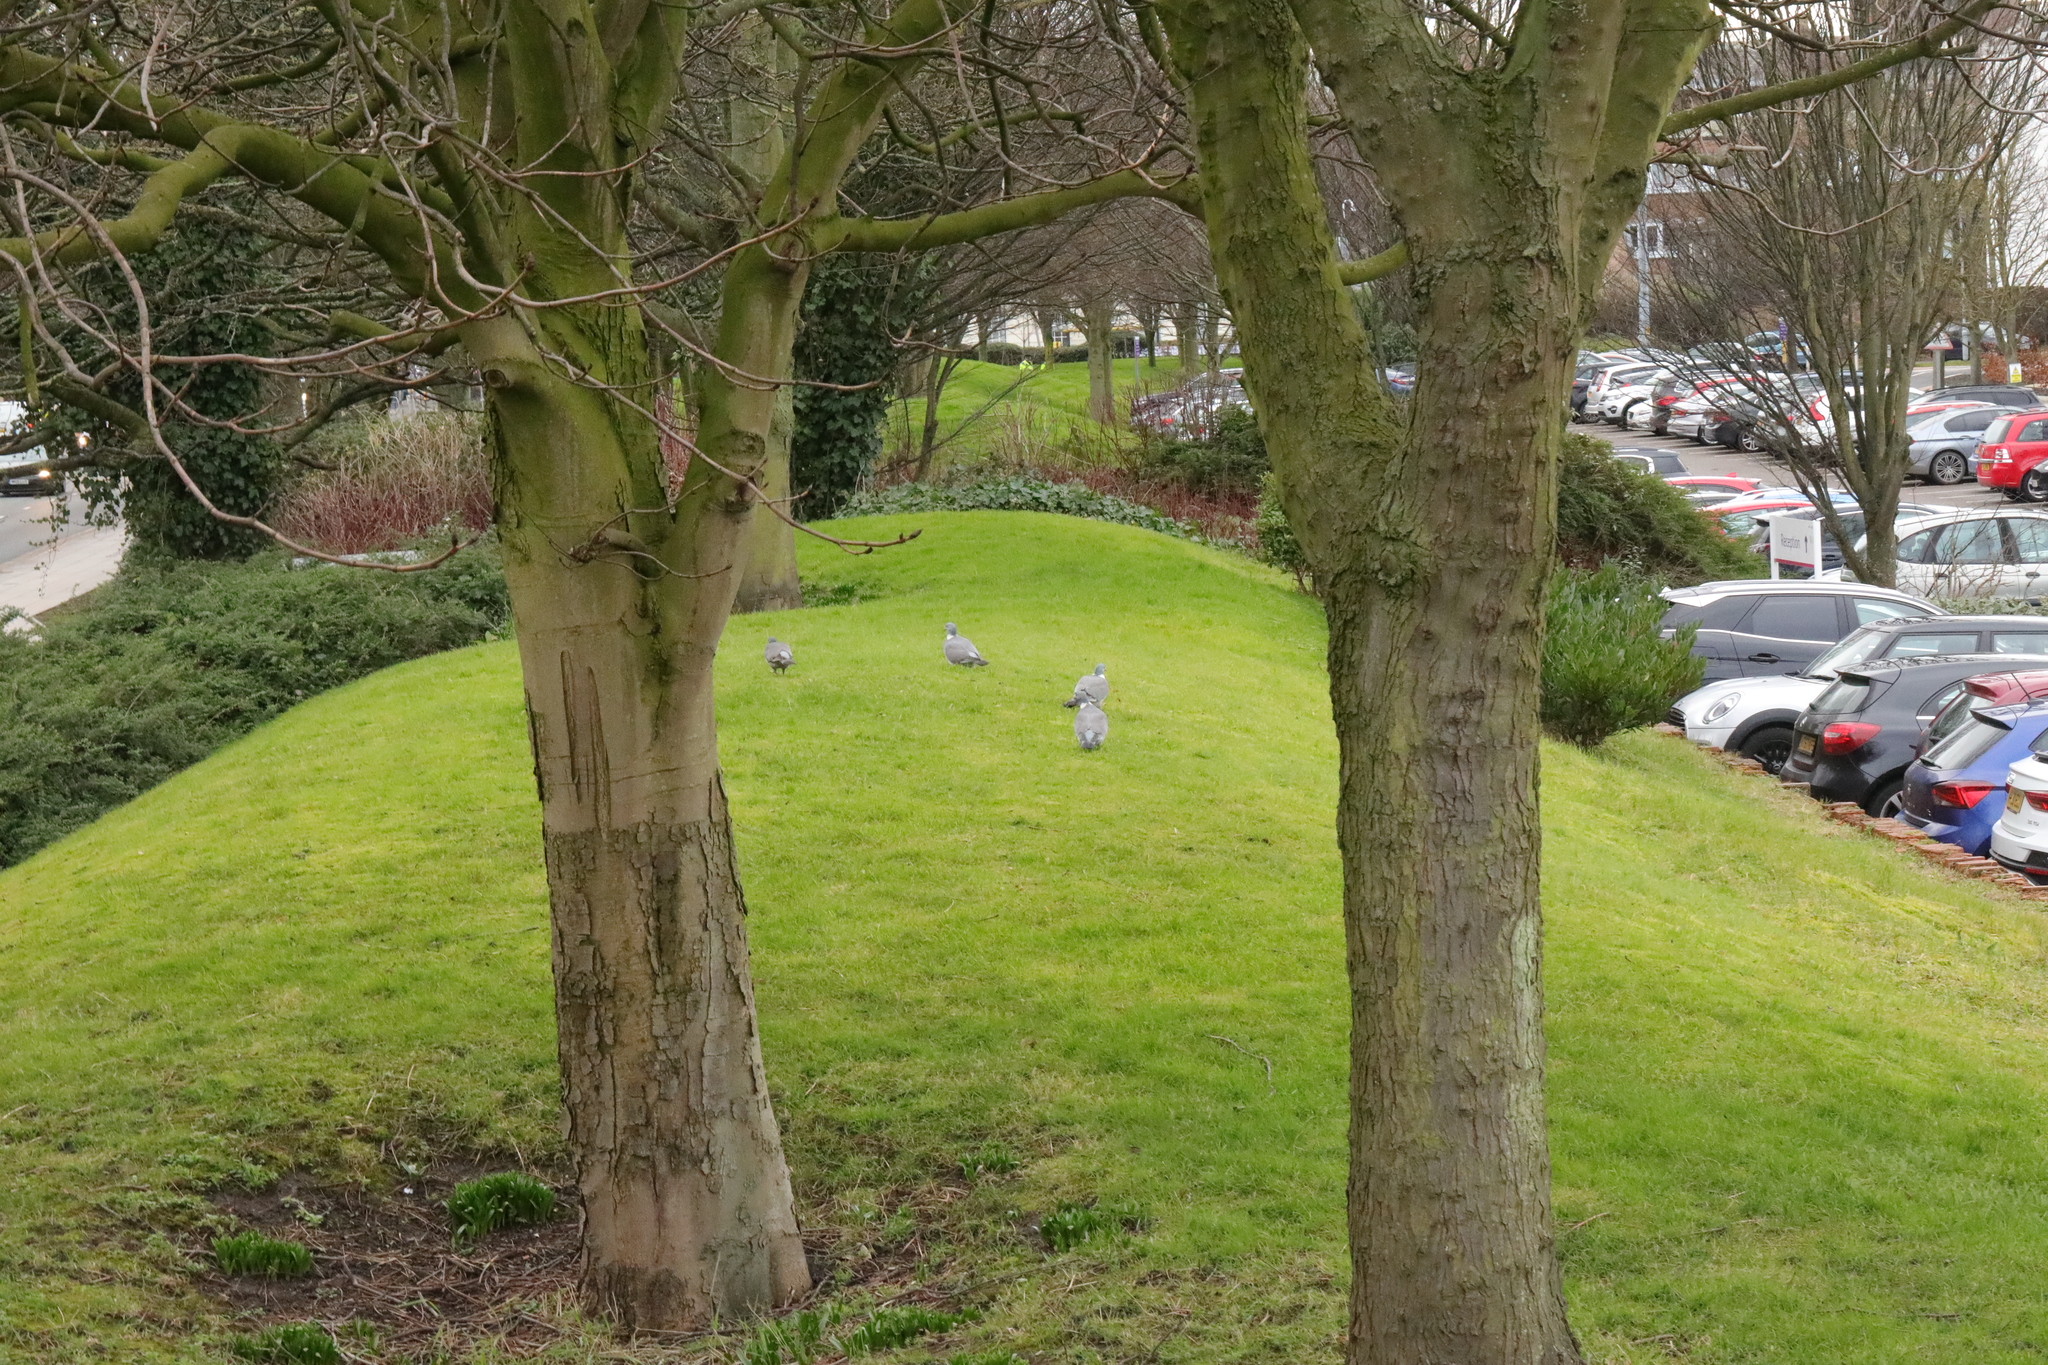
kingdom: Animalia
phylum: Chordata
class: Aves
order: Columbiformes
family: Columbidae
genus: Columba
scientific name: Columba palumbus
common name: Common wood pigeon
